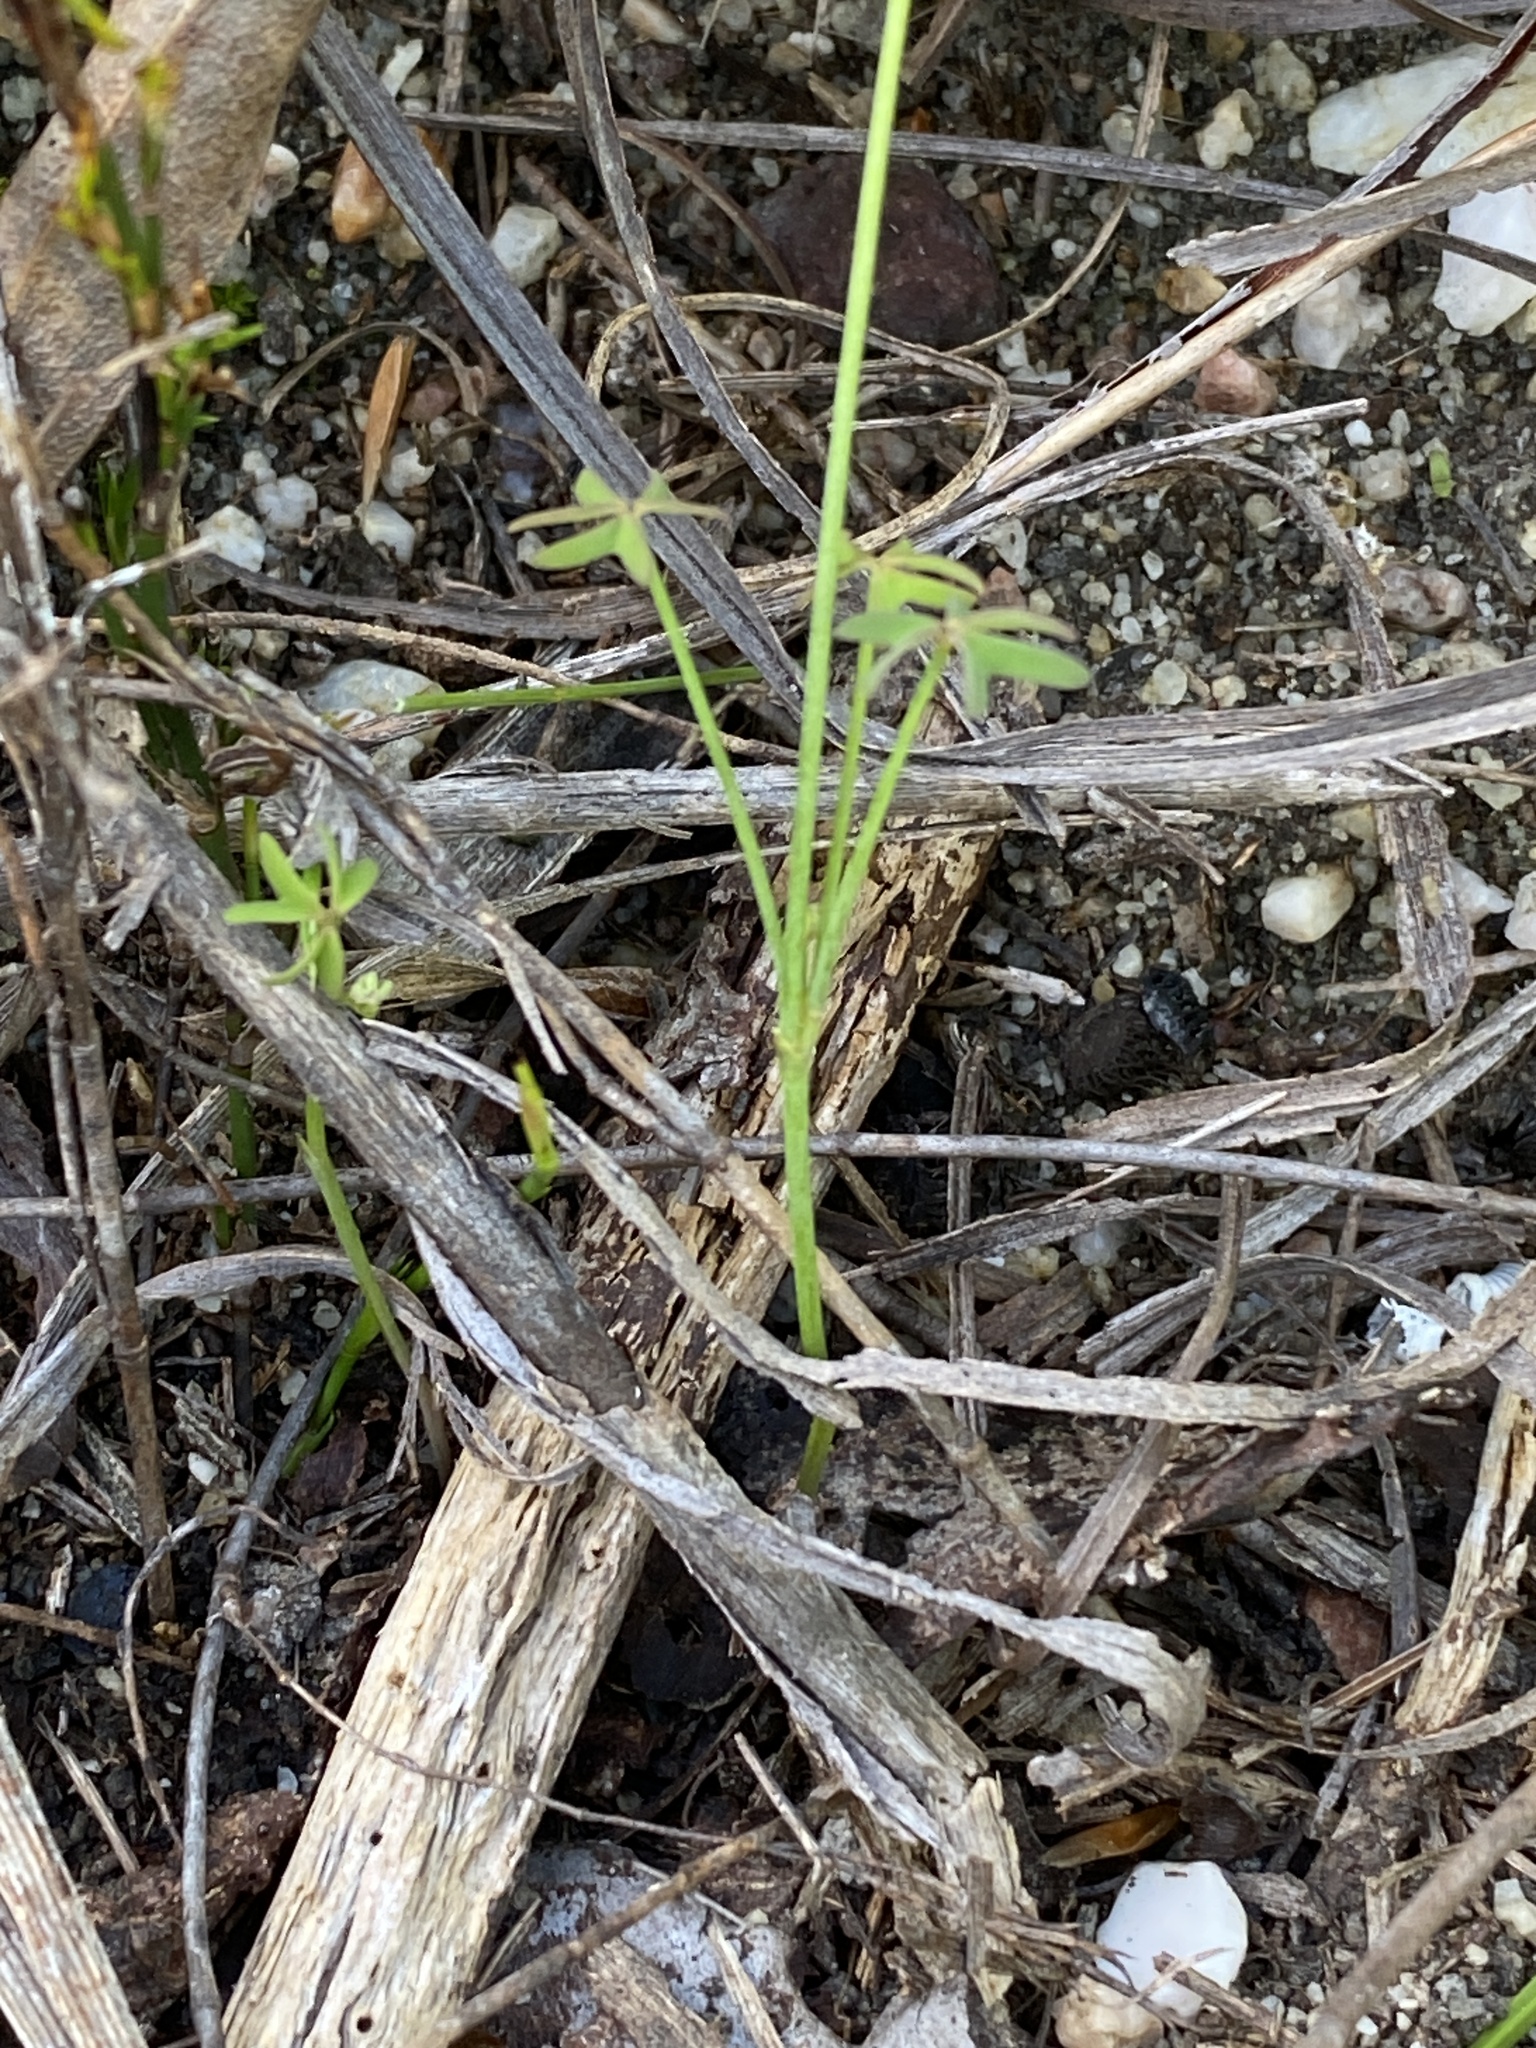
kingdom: Plantae
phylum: Tracheophyta
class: Magnoliopsida
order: Oxalidales
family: Oxalidaceae
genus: Oxalis
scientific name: Oxalis livida
